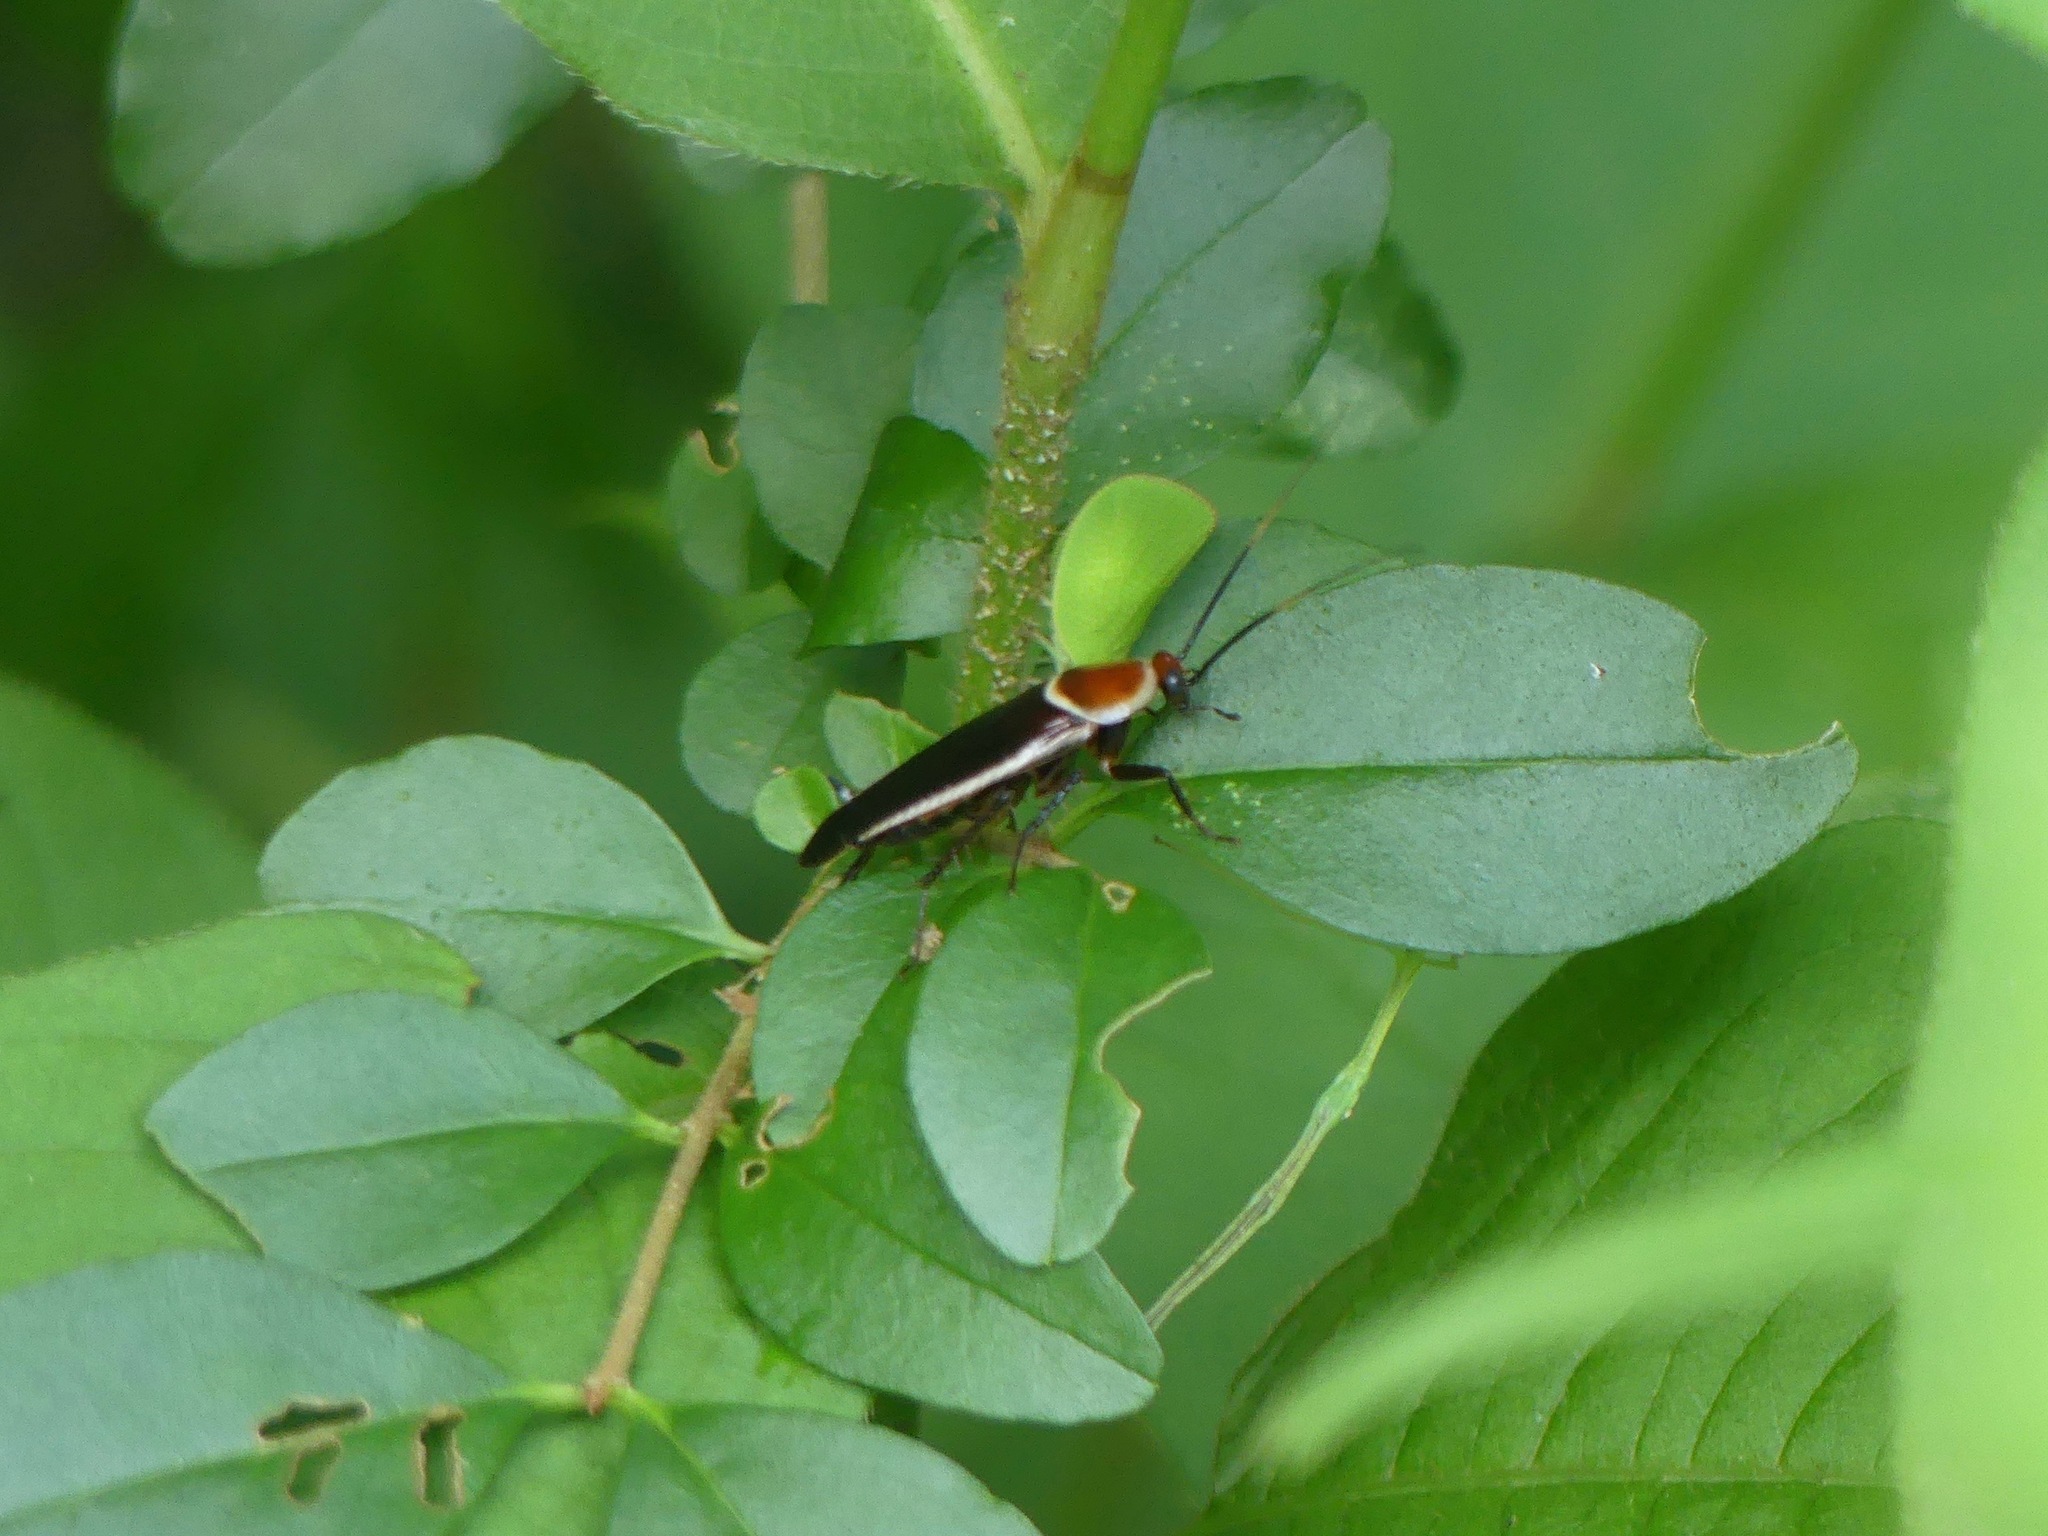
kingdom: Animalia
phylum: Arthropoda
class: Insecta
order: Blattodea
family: Ectobiidae
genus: Pseudomops
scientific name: Pseudomops septentrionalis
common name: Pale-bordered field cockroach
